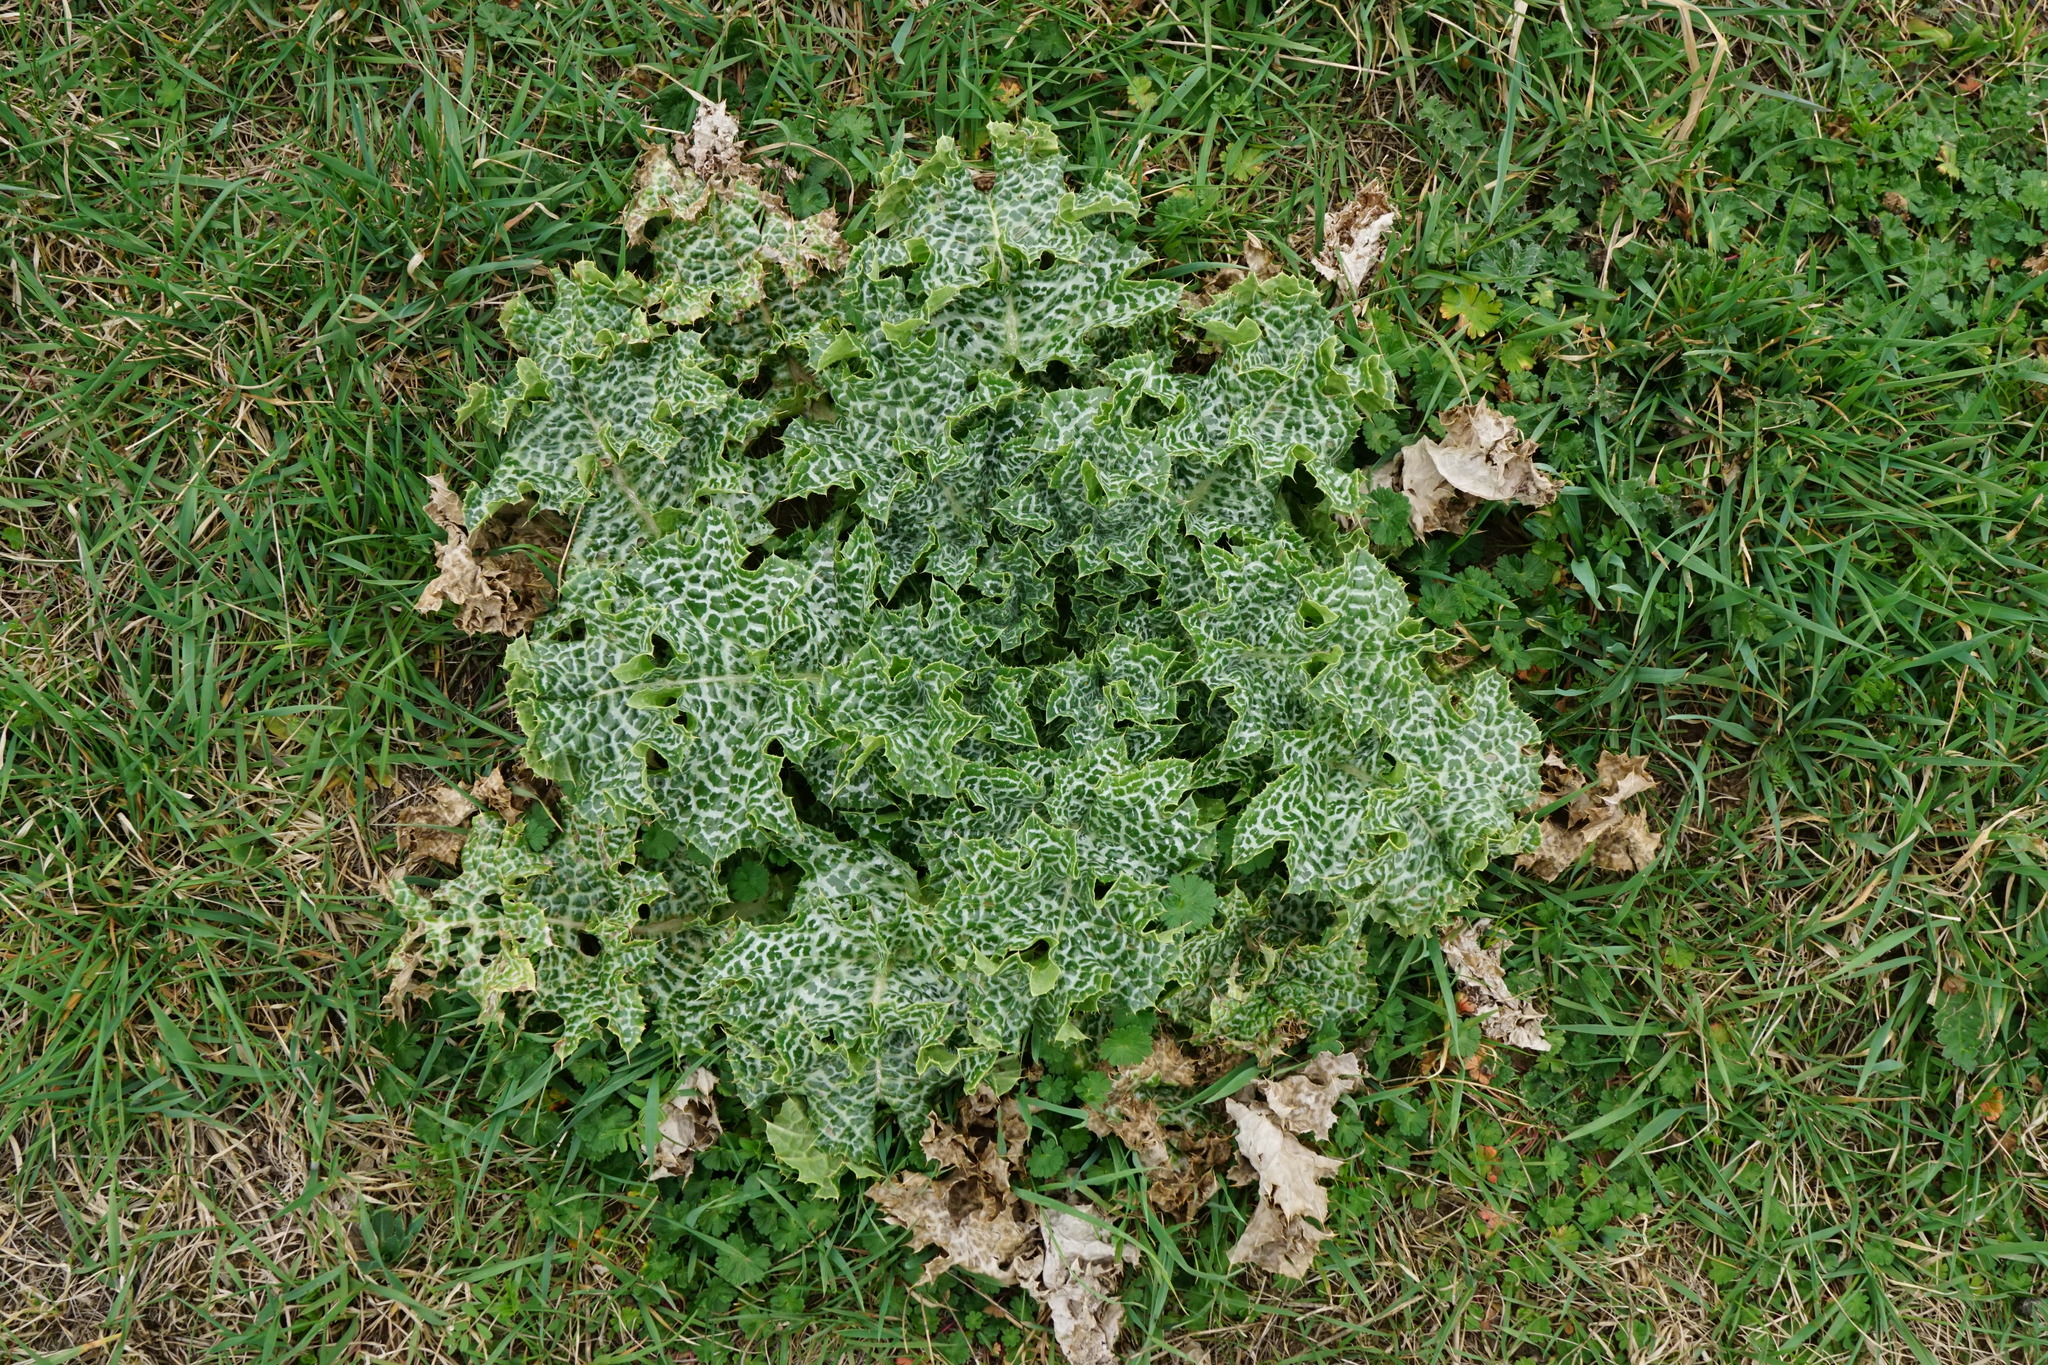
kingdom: Plantae
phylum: Tracheophyta
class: Magnoliopsida
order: Asterales
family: Asteraceae
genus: Silybum
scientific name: Silybum marianum
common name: Milk thistle
